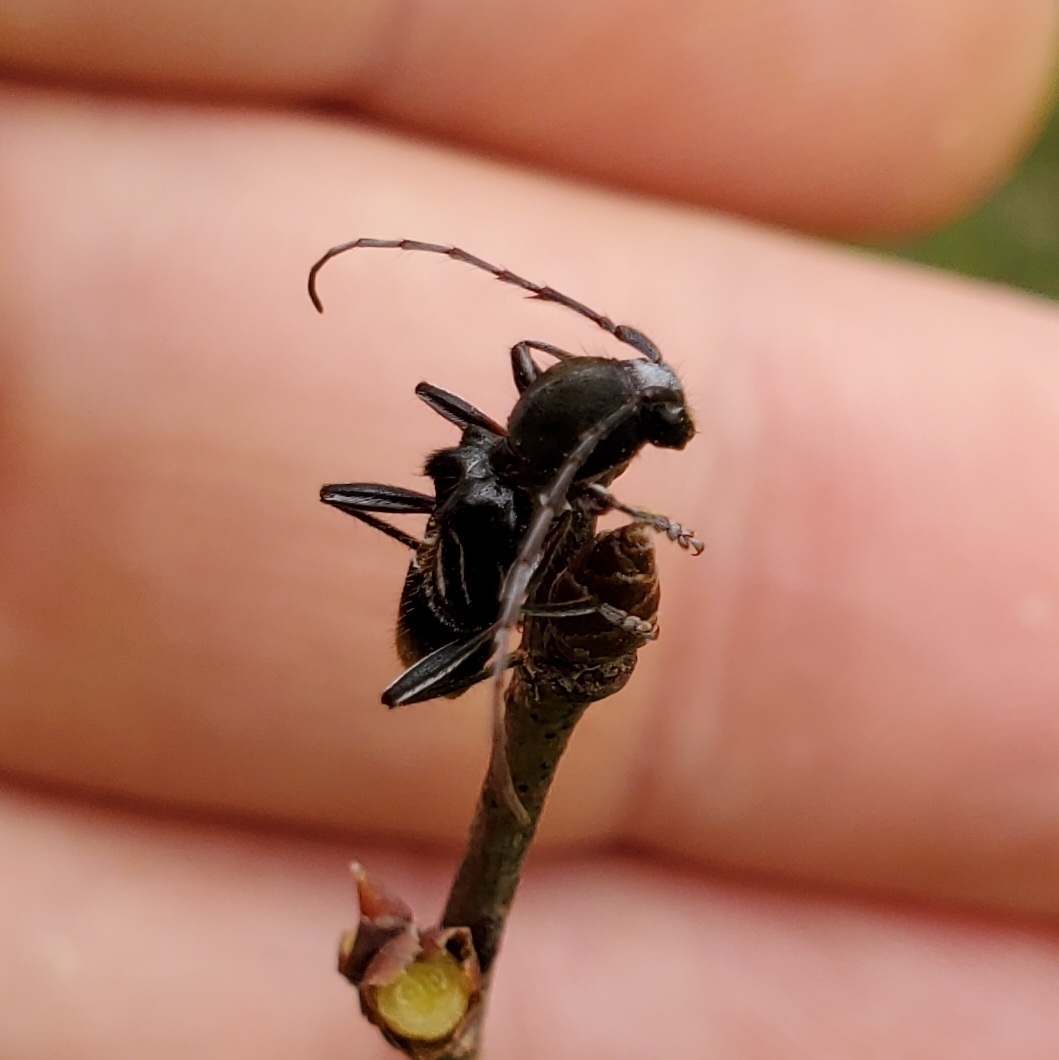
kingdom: Animalia
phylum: Arthropoda
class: Insecta
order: Coleoptera
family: Cerambycidae
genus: Cyrtophorus
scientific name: Cyrtophorus verrucosus
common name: Ant-like longhorn beetle
